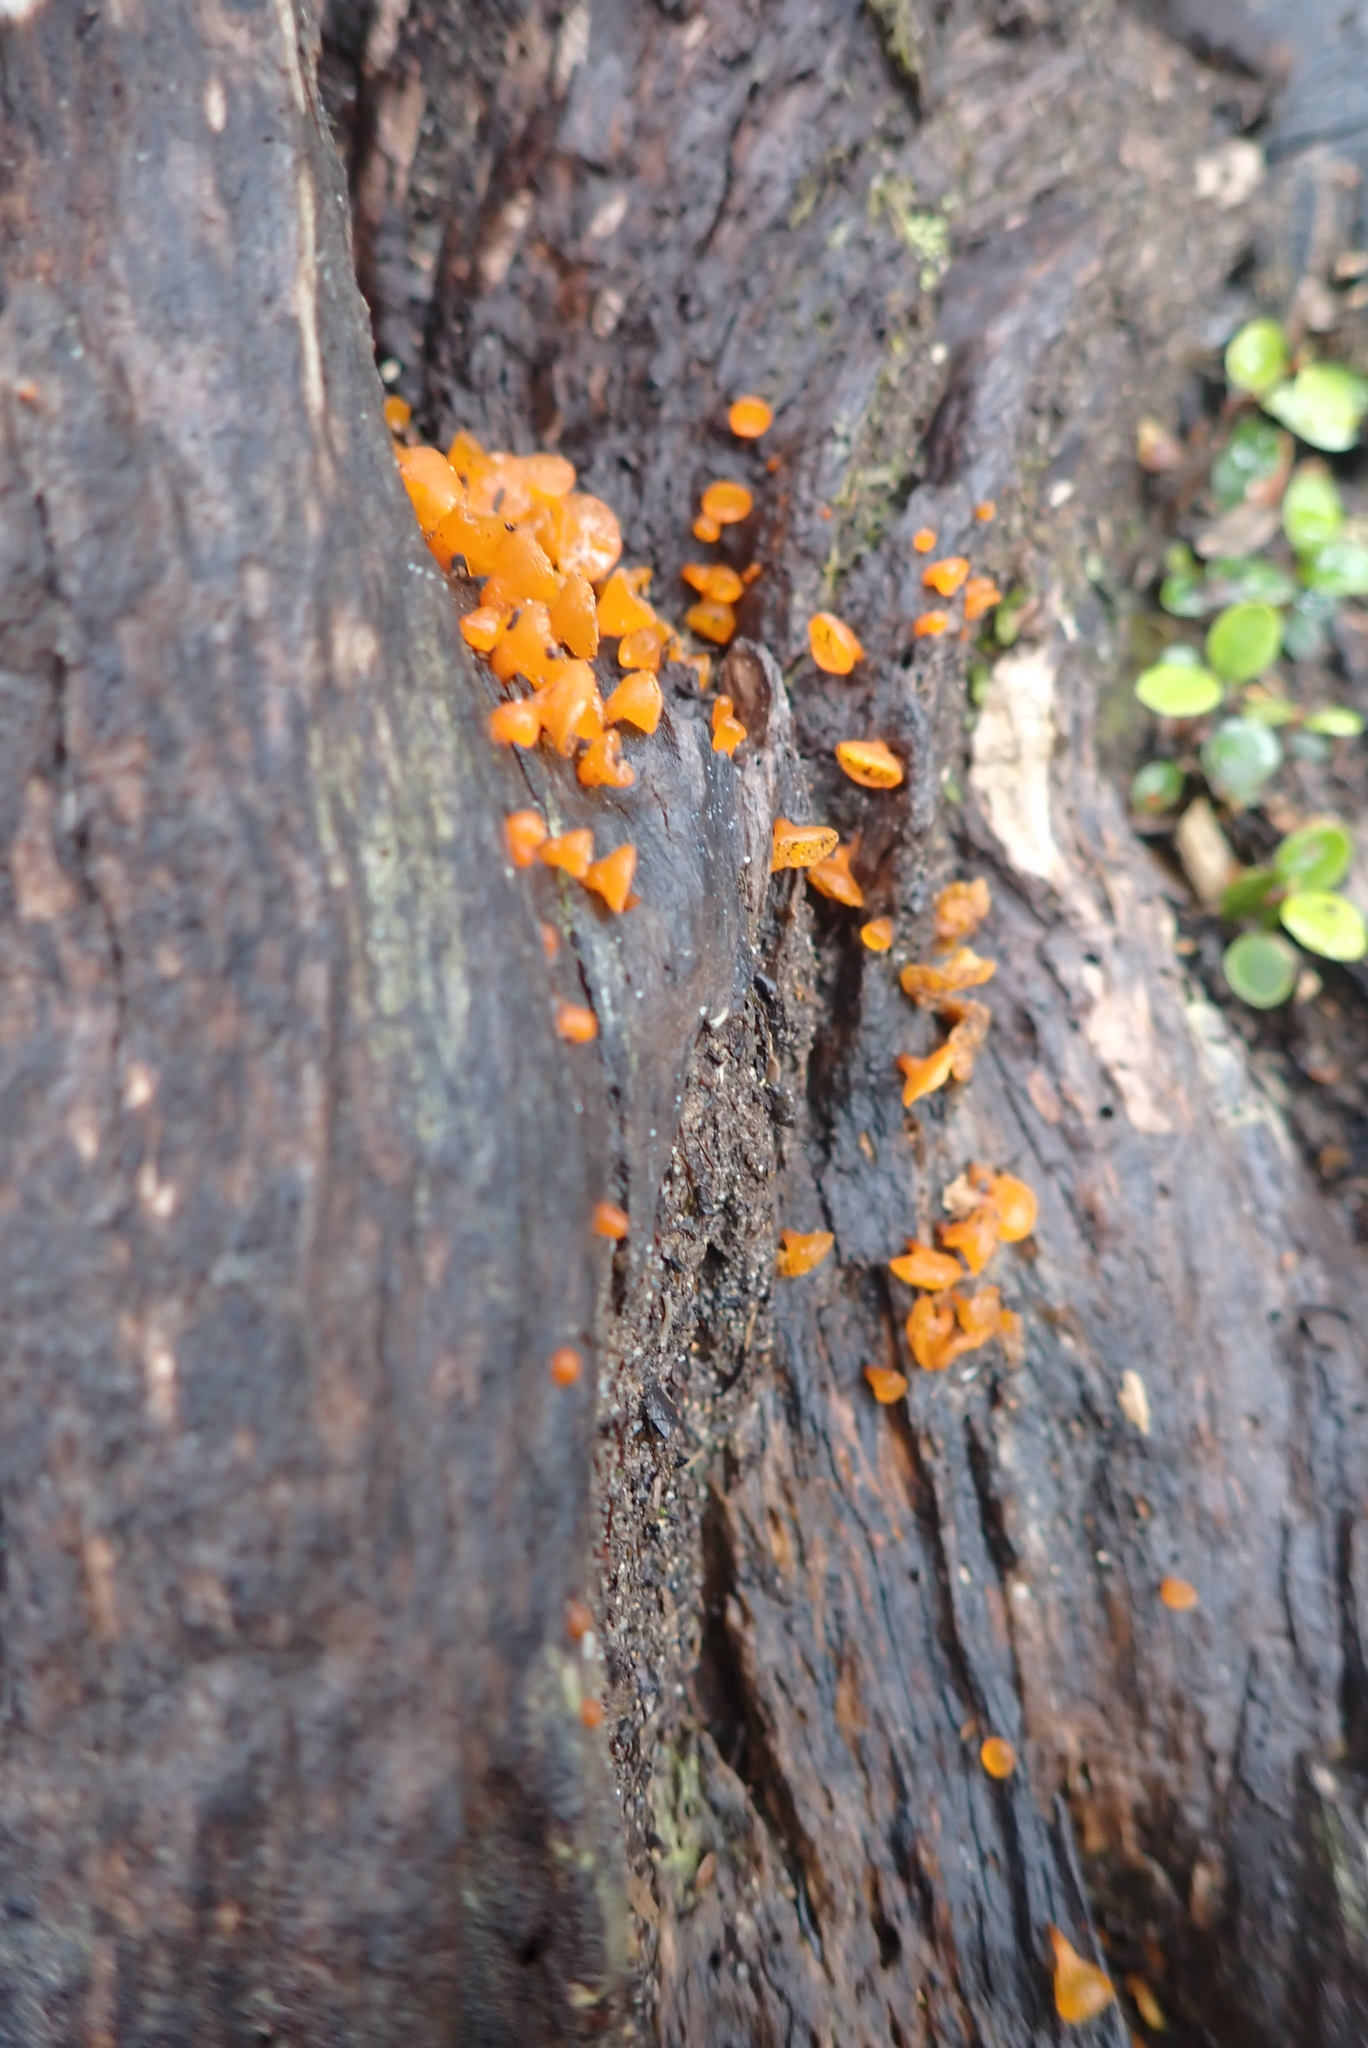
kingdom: Fungi
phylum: Basidiomycota
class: Dacrymycetes
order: Dacrymycetales
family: Dacrymycetaceae
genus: Heterotextus
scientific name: Heterotextus miltinus
